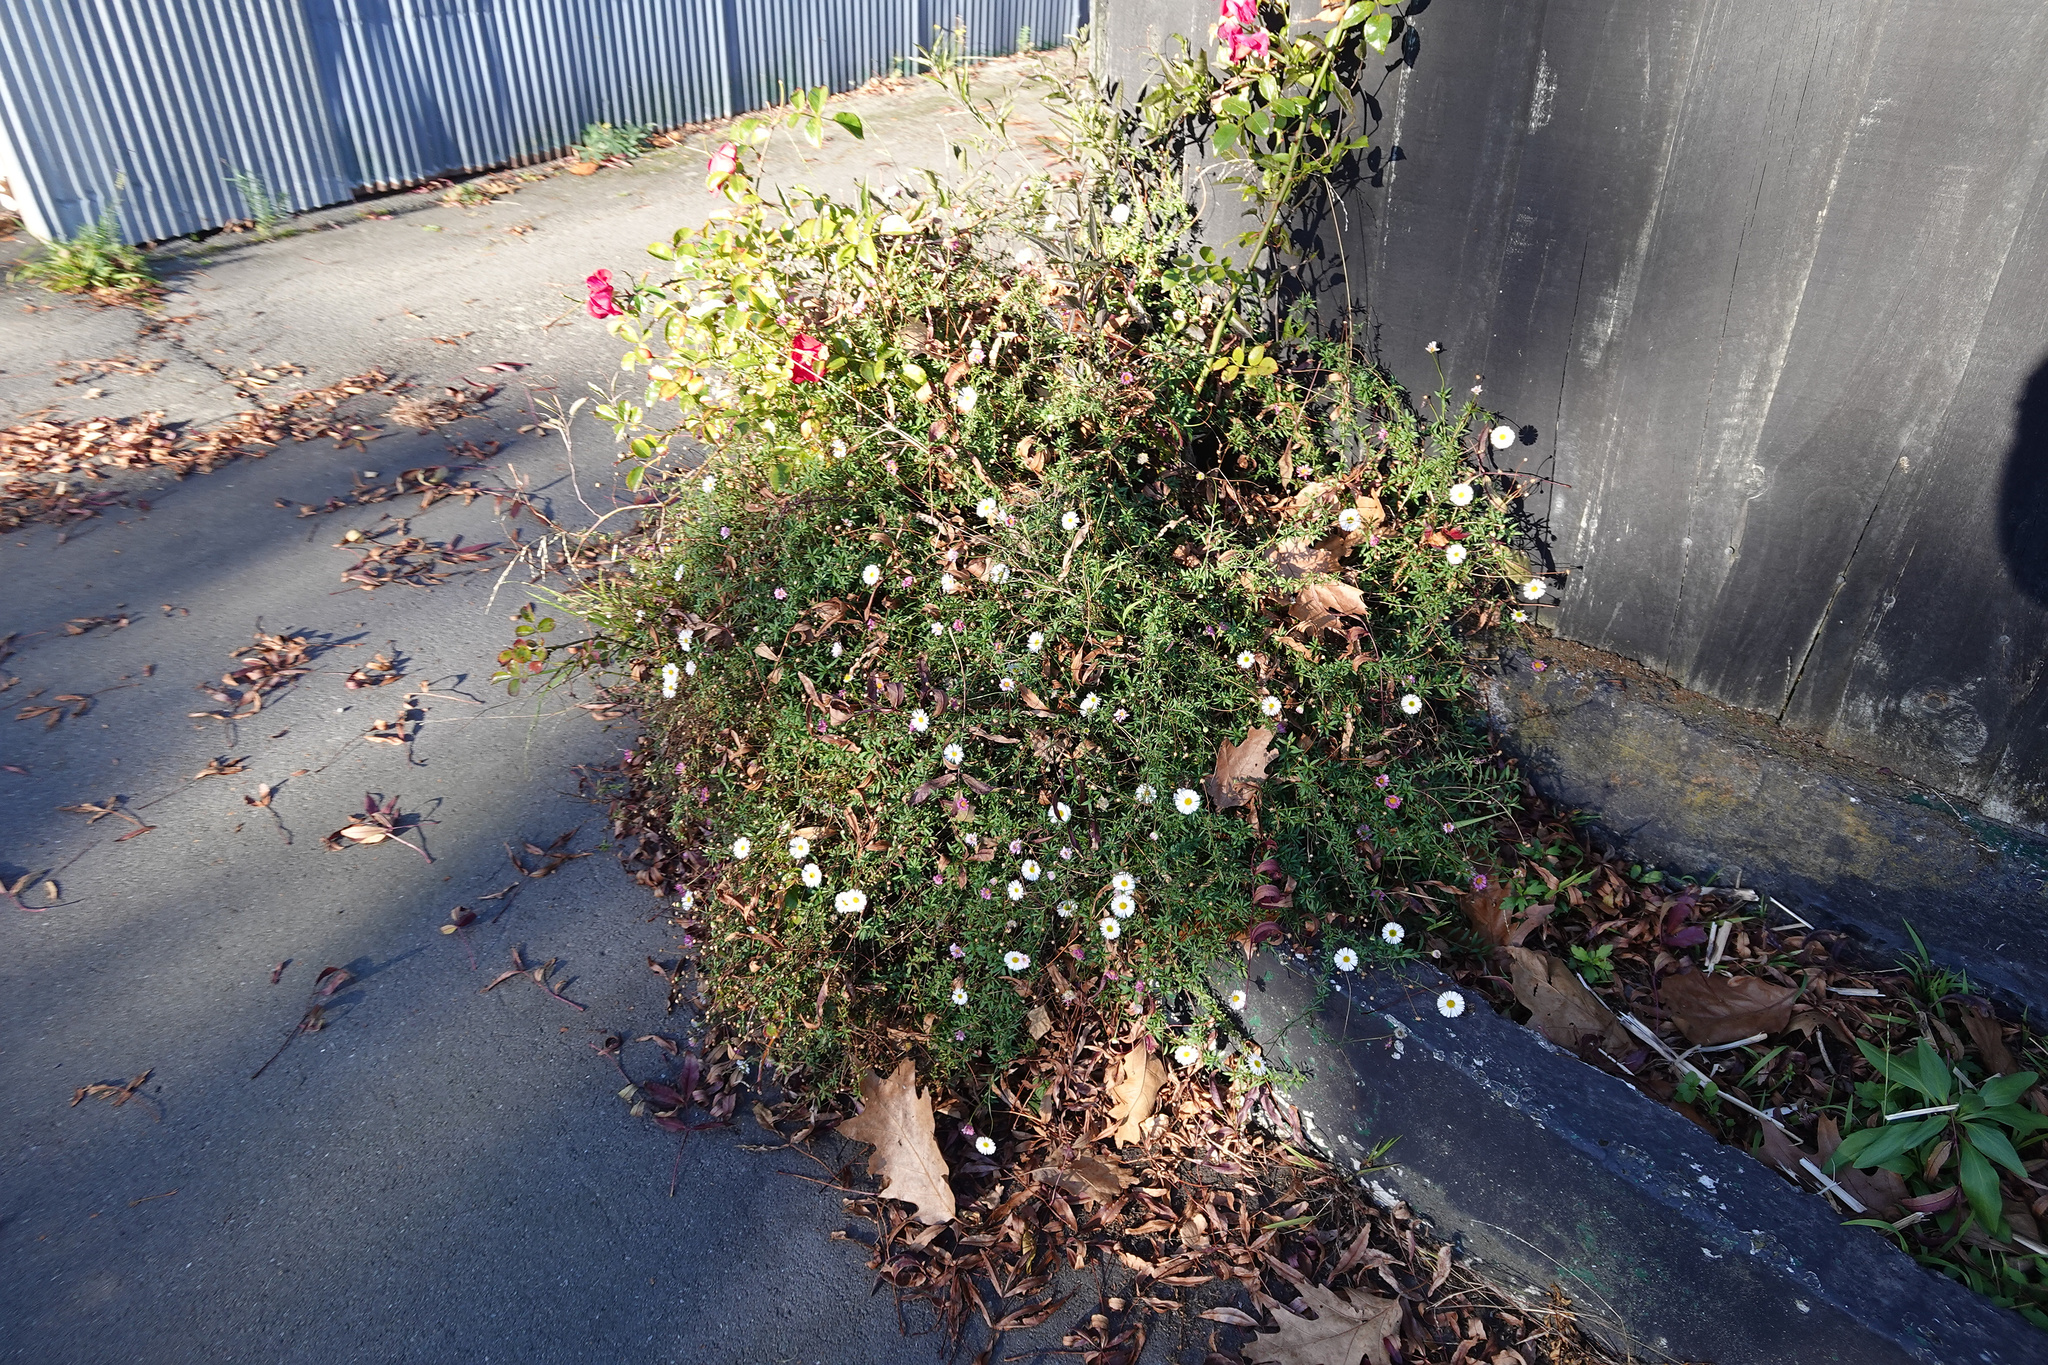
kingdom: Plantae
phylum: Tracheophyta
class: Magnoliopsida
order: Asterales
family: Asteraceae
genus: Erigeron
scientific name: Erigeron karvinskianus
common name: Mexican fleabane
